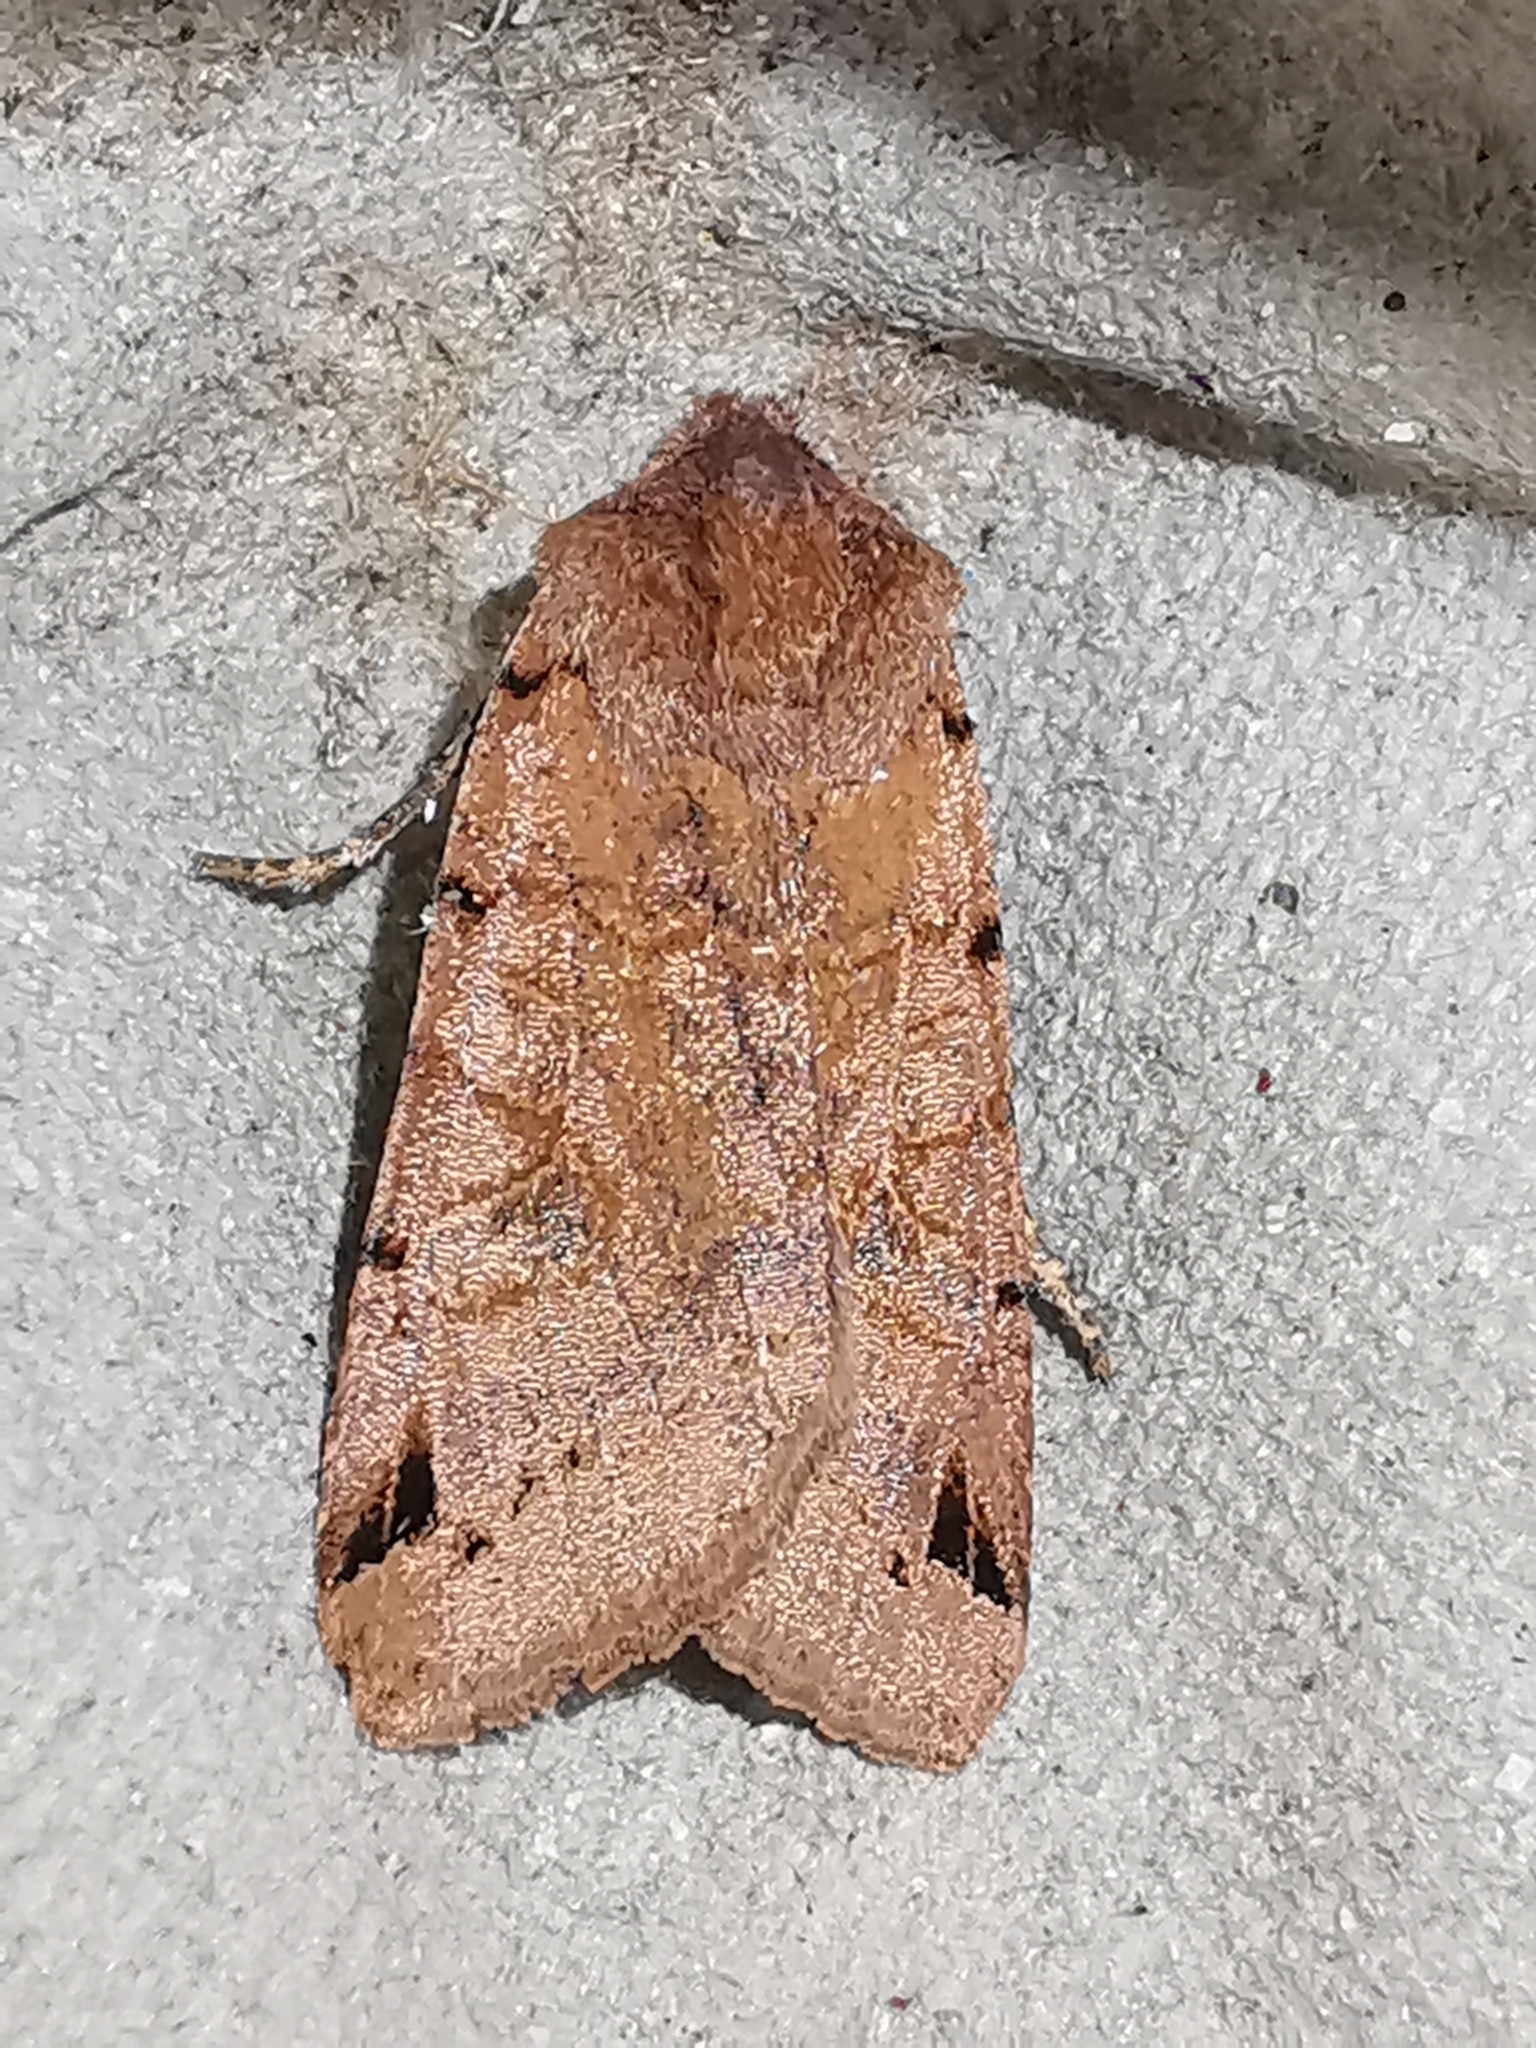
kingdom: Animalia
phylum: Arthropoda
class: Insecta
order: Lepidoptera
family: Noctuidae
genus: Agrochola
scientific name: Agrochola litura
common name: Brown-spot pinion
